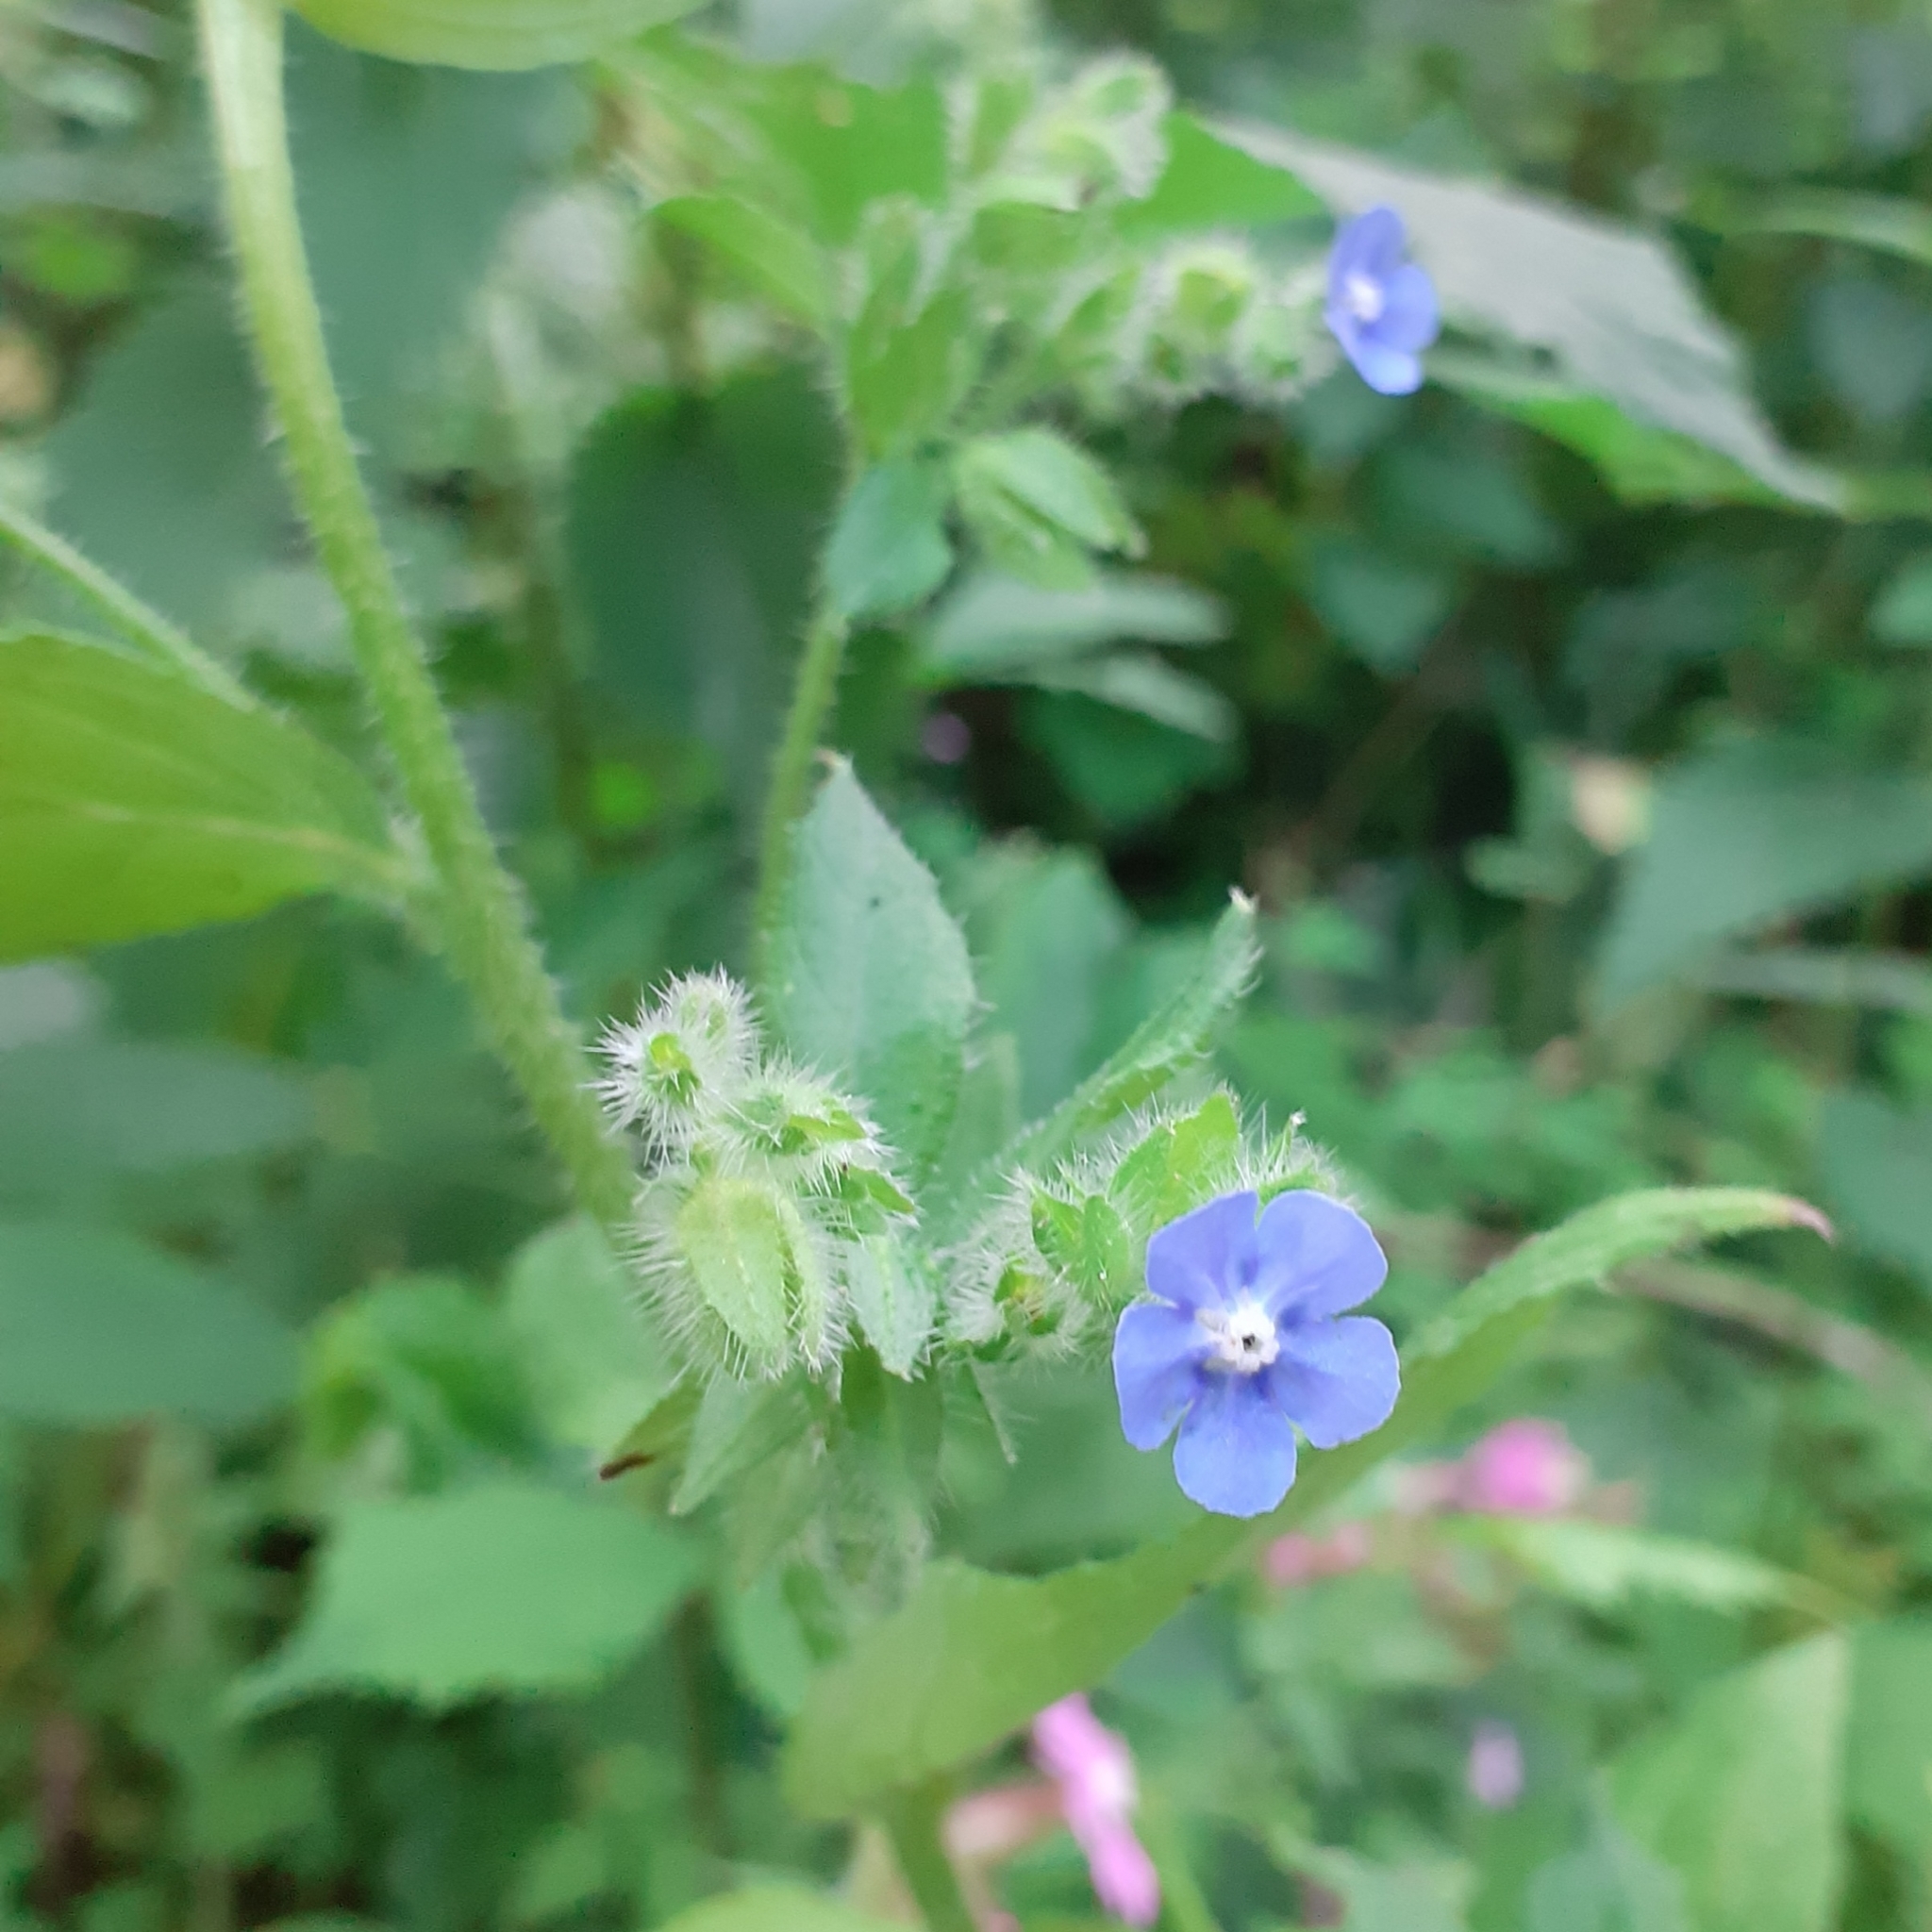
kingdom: Plantae
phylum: Tracheophyta
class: Magnoliopsida
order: Boraginales
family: Boraginaceae
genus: Pentaglottis
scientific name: Pentaglottis sempervirens
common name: Green alkanet
